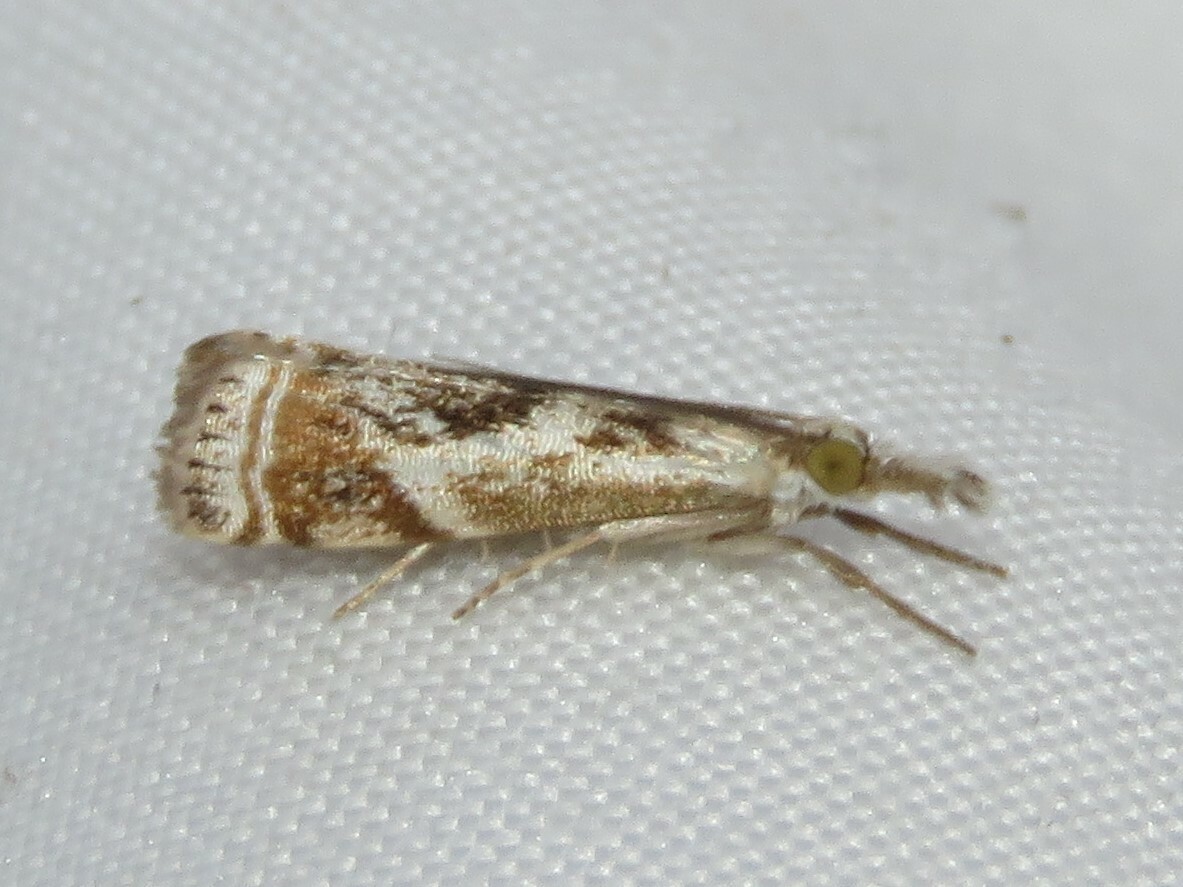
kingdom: Animalia
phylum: Arthropoda
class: Insecta
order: Lepidoptera
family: Crambidae
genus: Microcrambus
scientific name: Microcrambus elegans
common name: Elegant grass-veneer
